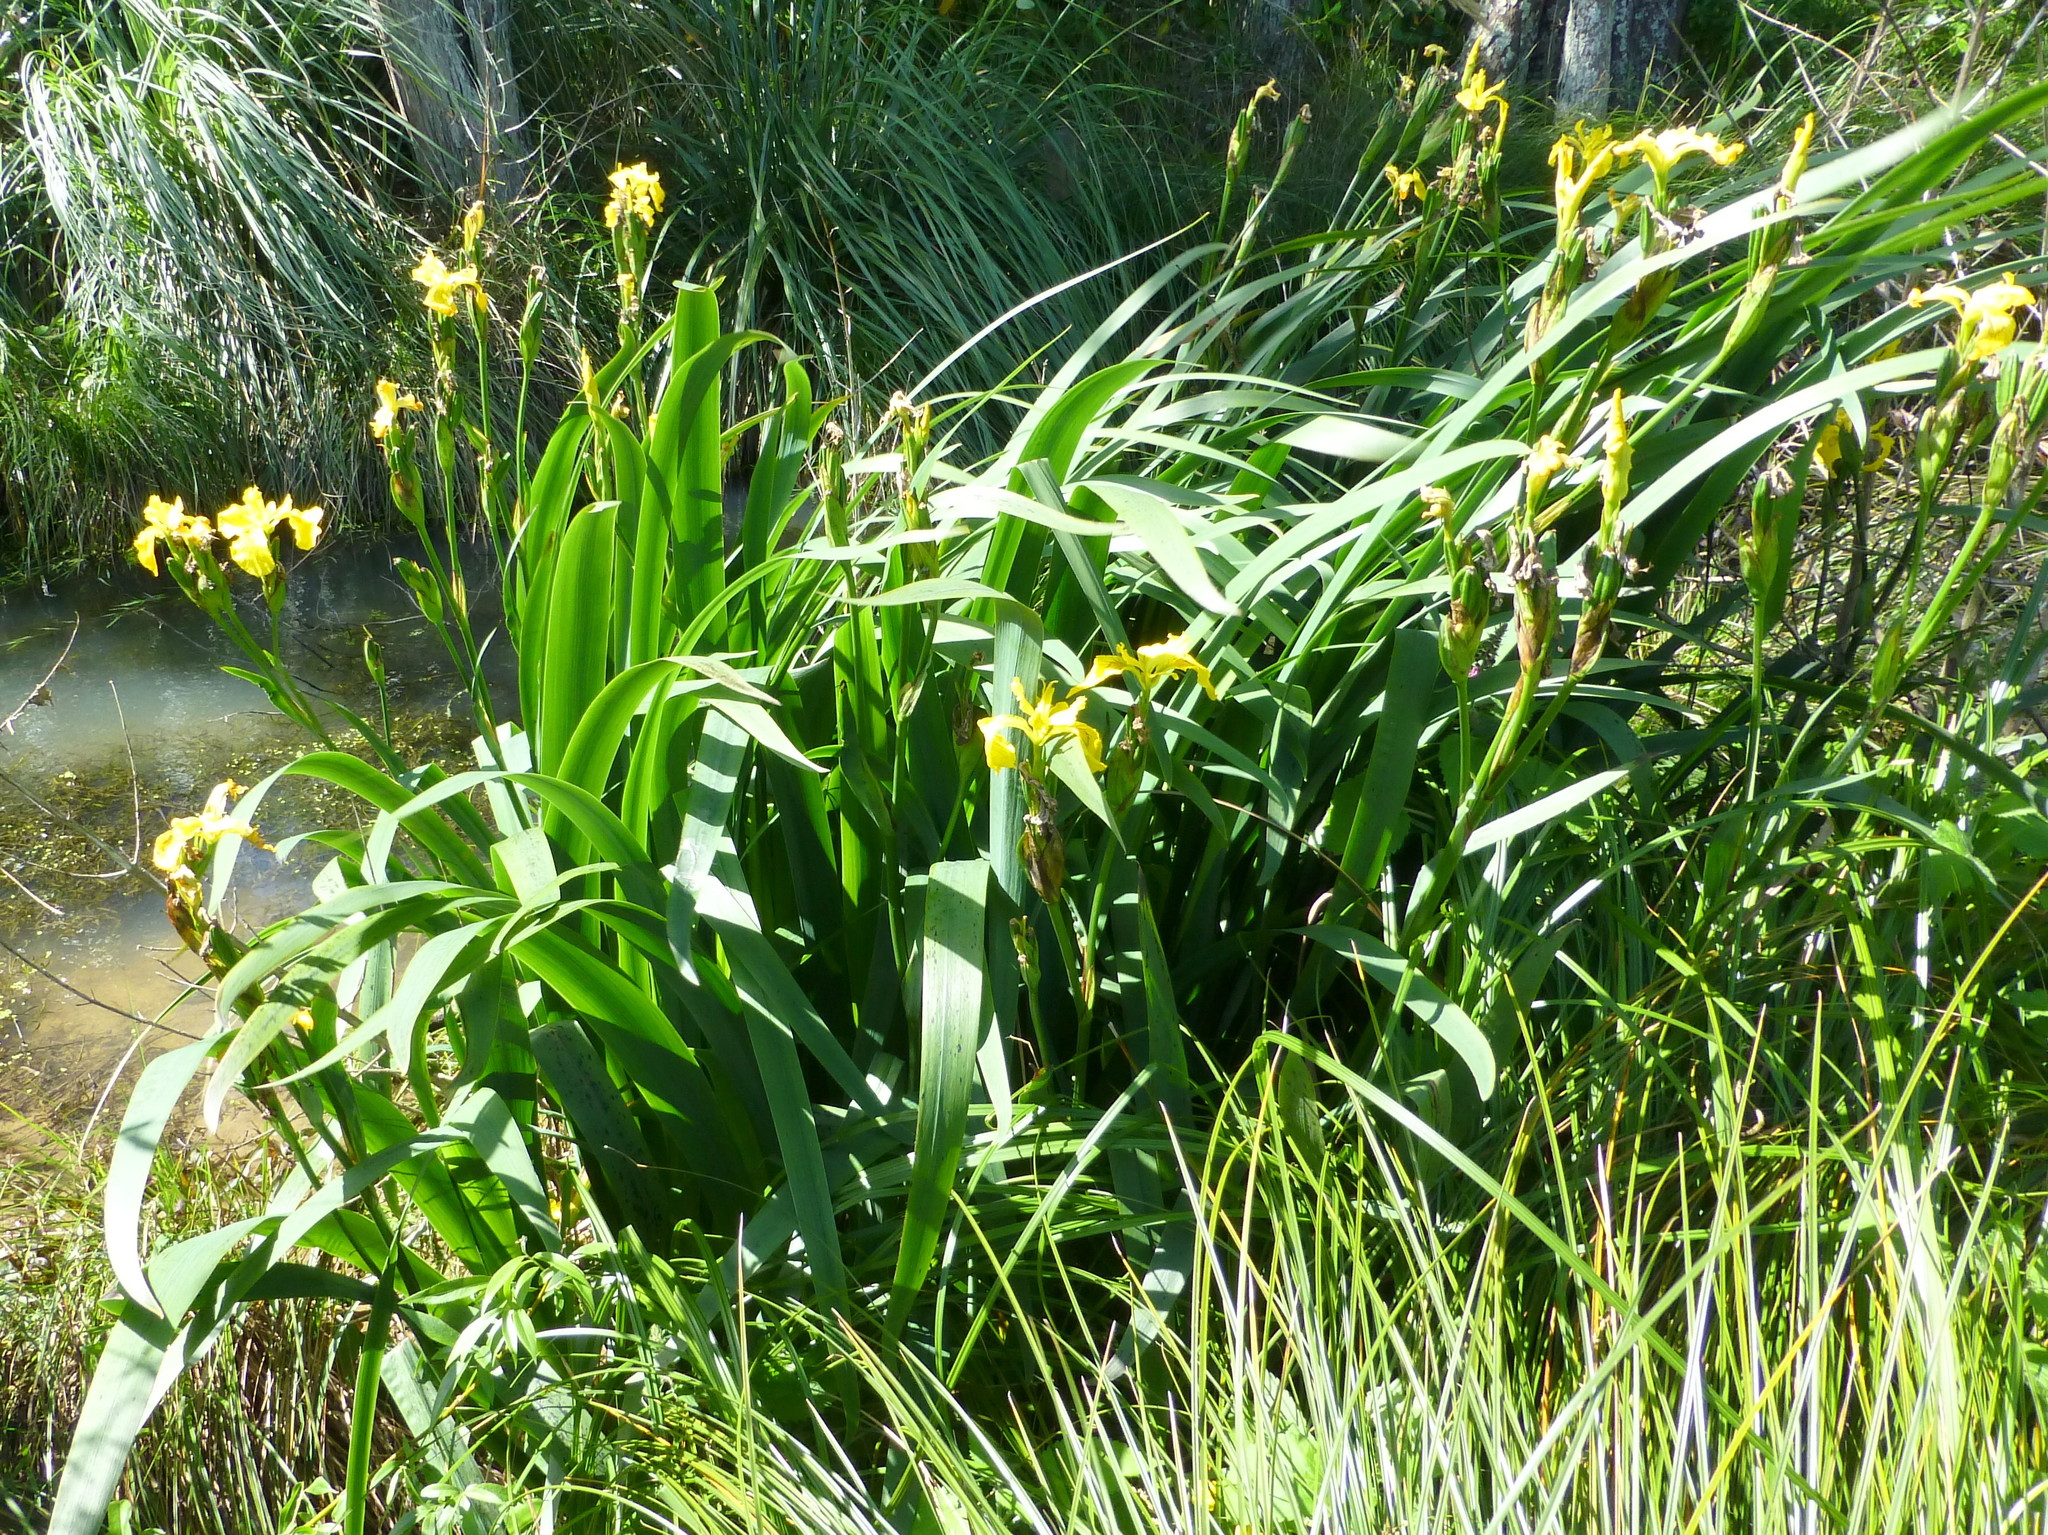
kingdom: Plantae
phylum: Tracheophyta
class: Liliopsida
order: Asparagales
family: Iridaceae
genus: Iris
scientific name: Iris pseudacorus
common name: Yellow flag
